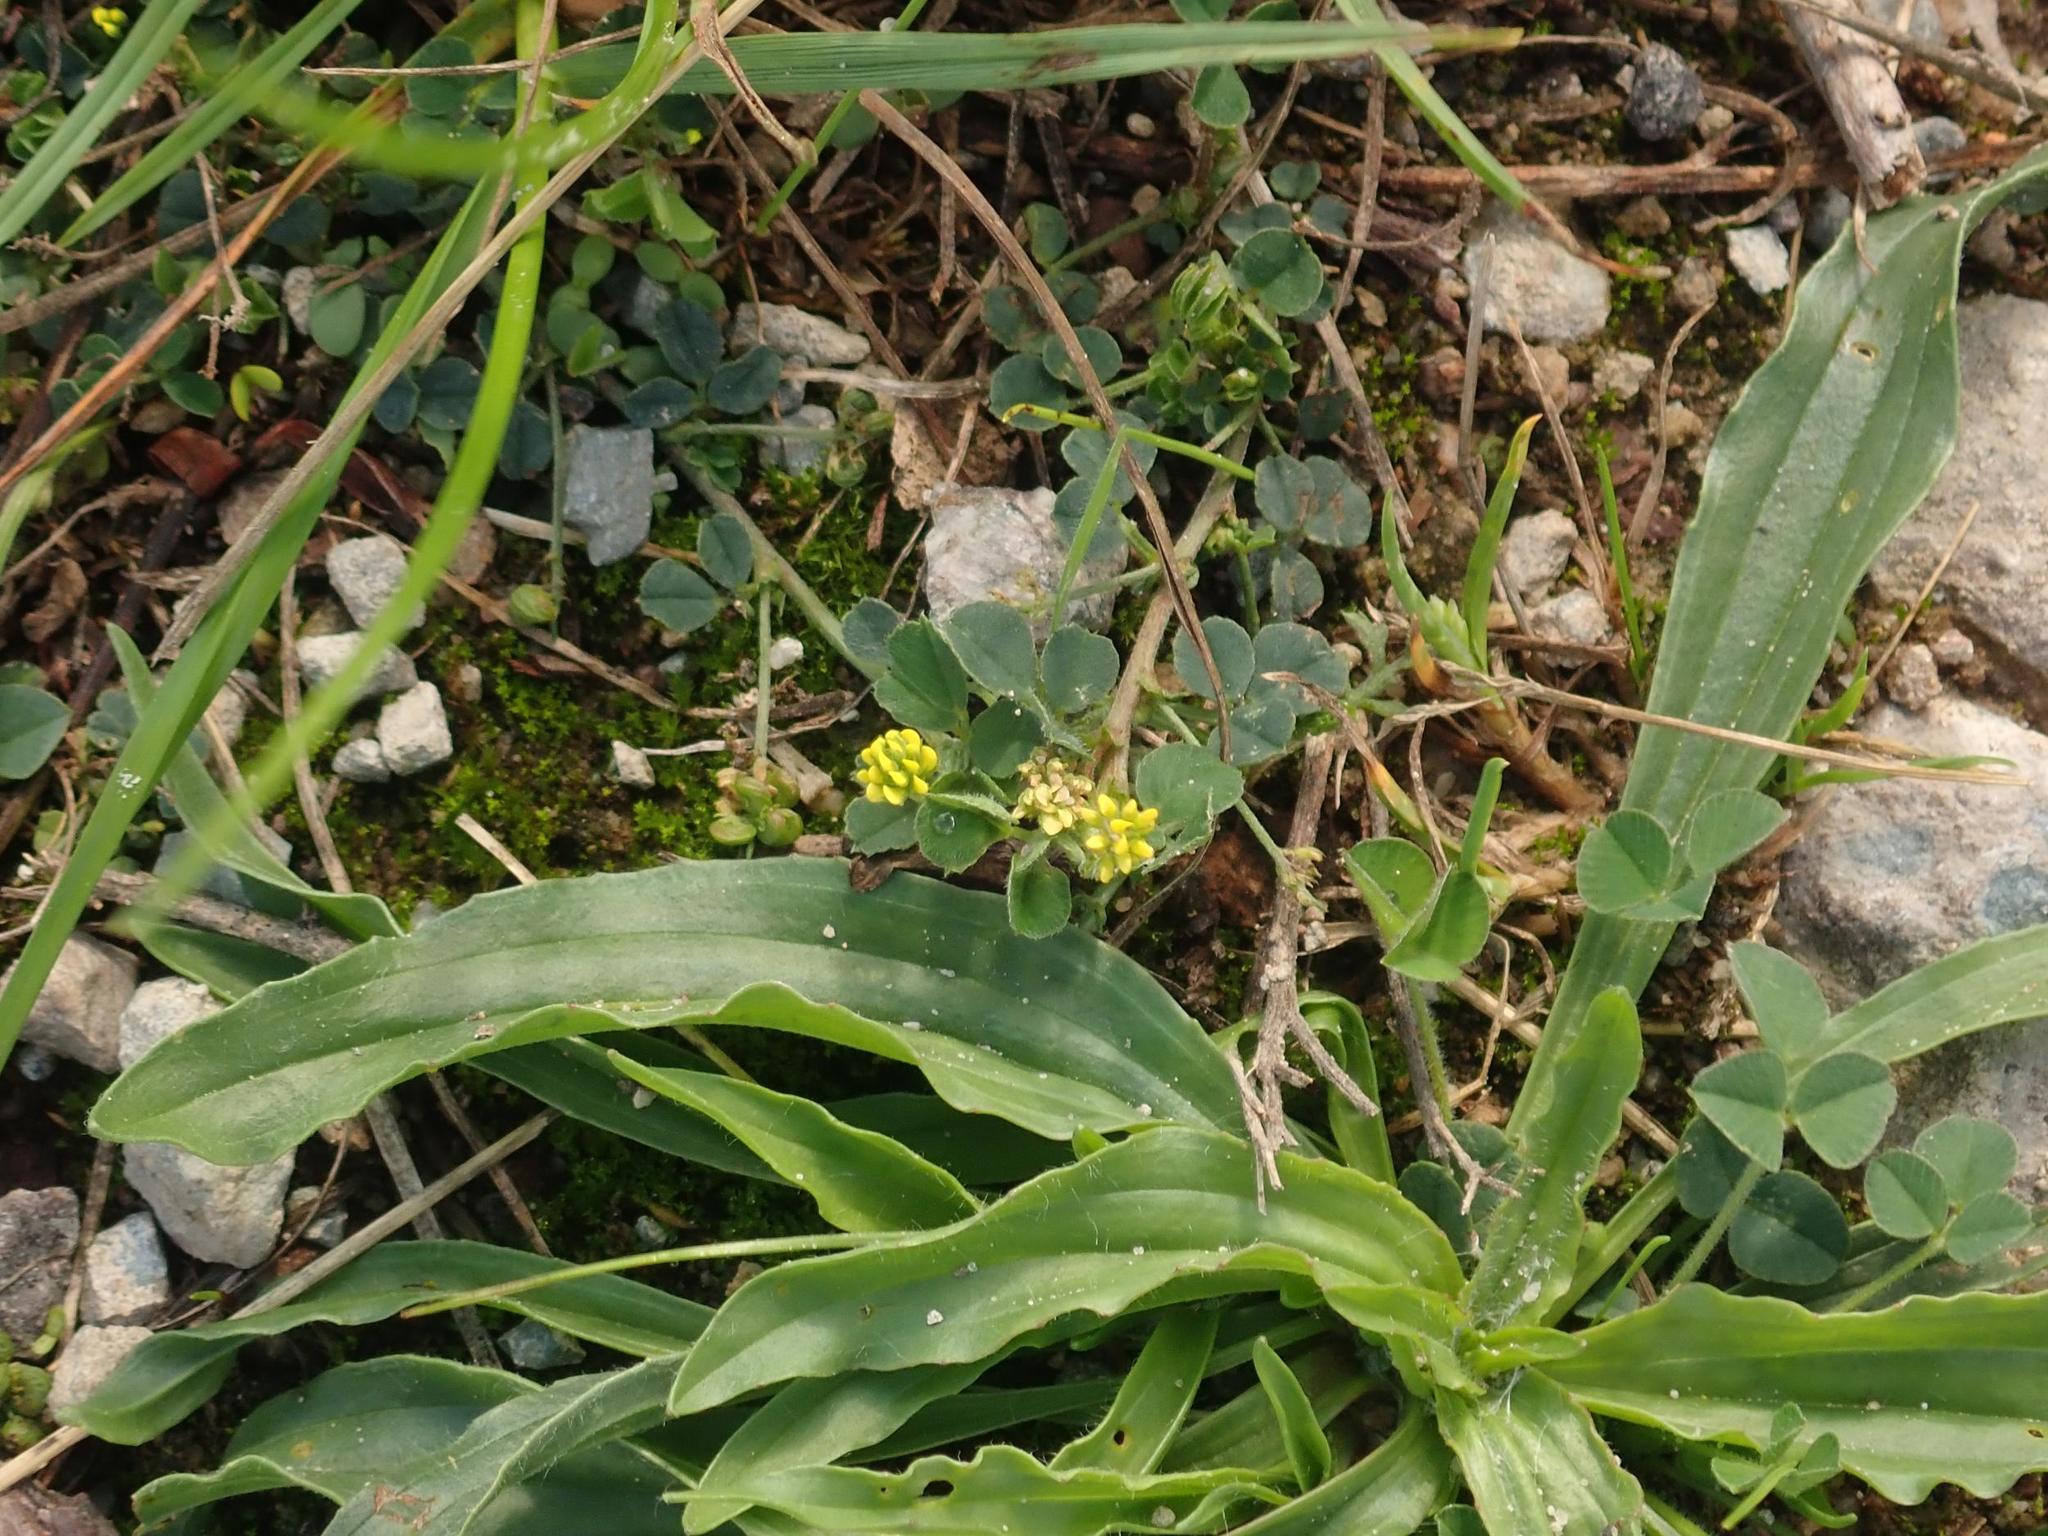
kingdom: Plantae
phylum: Tracheophyta
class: Magnoliopsida
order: Fabales
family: Fabaceae
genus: Medicago
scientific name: Medicago lupulina
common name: Black medick
